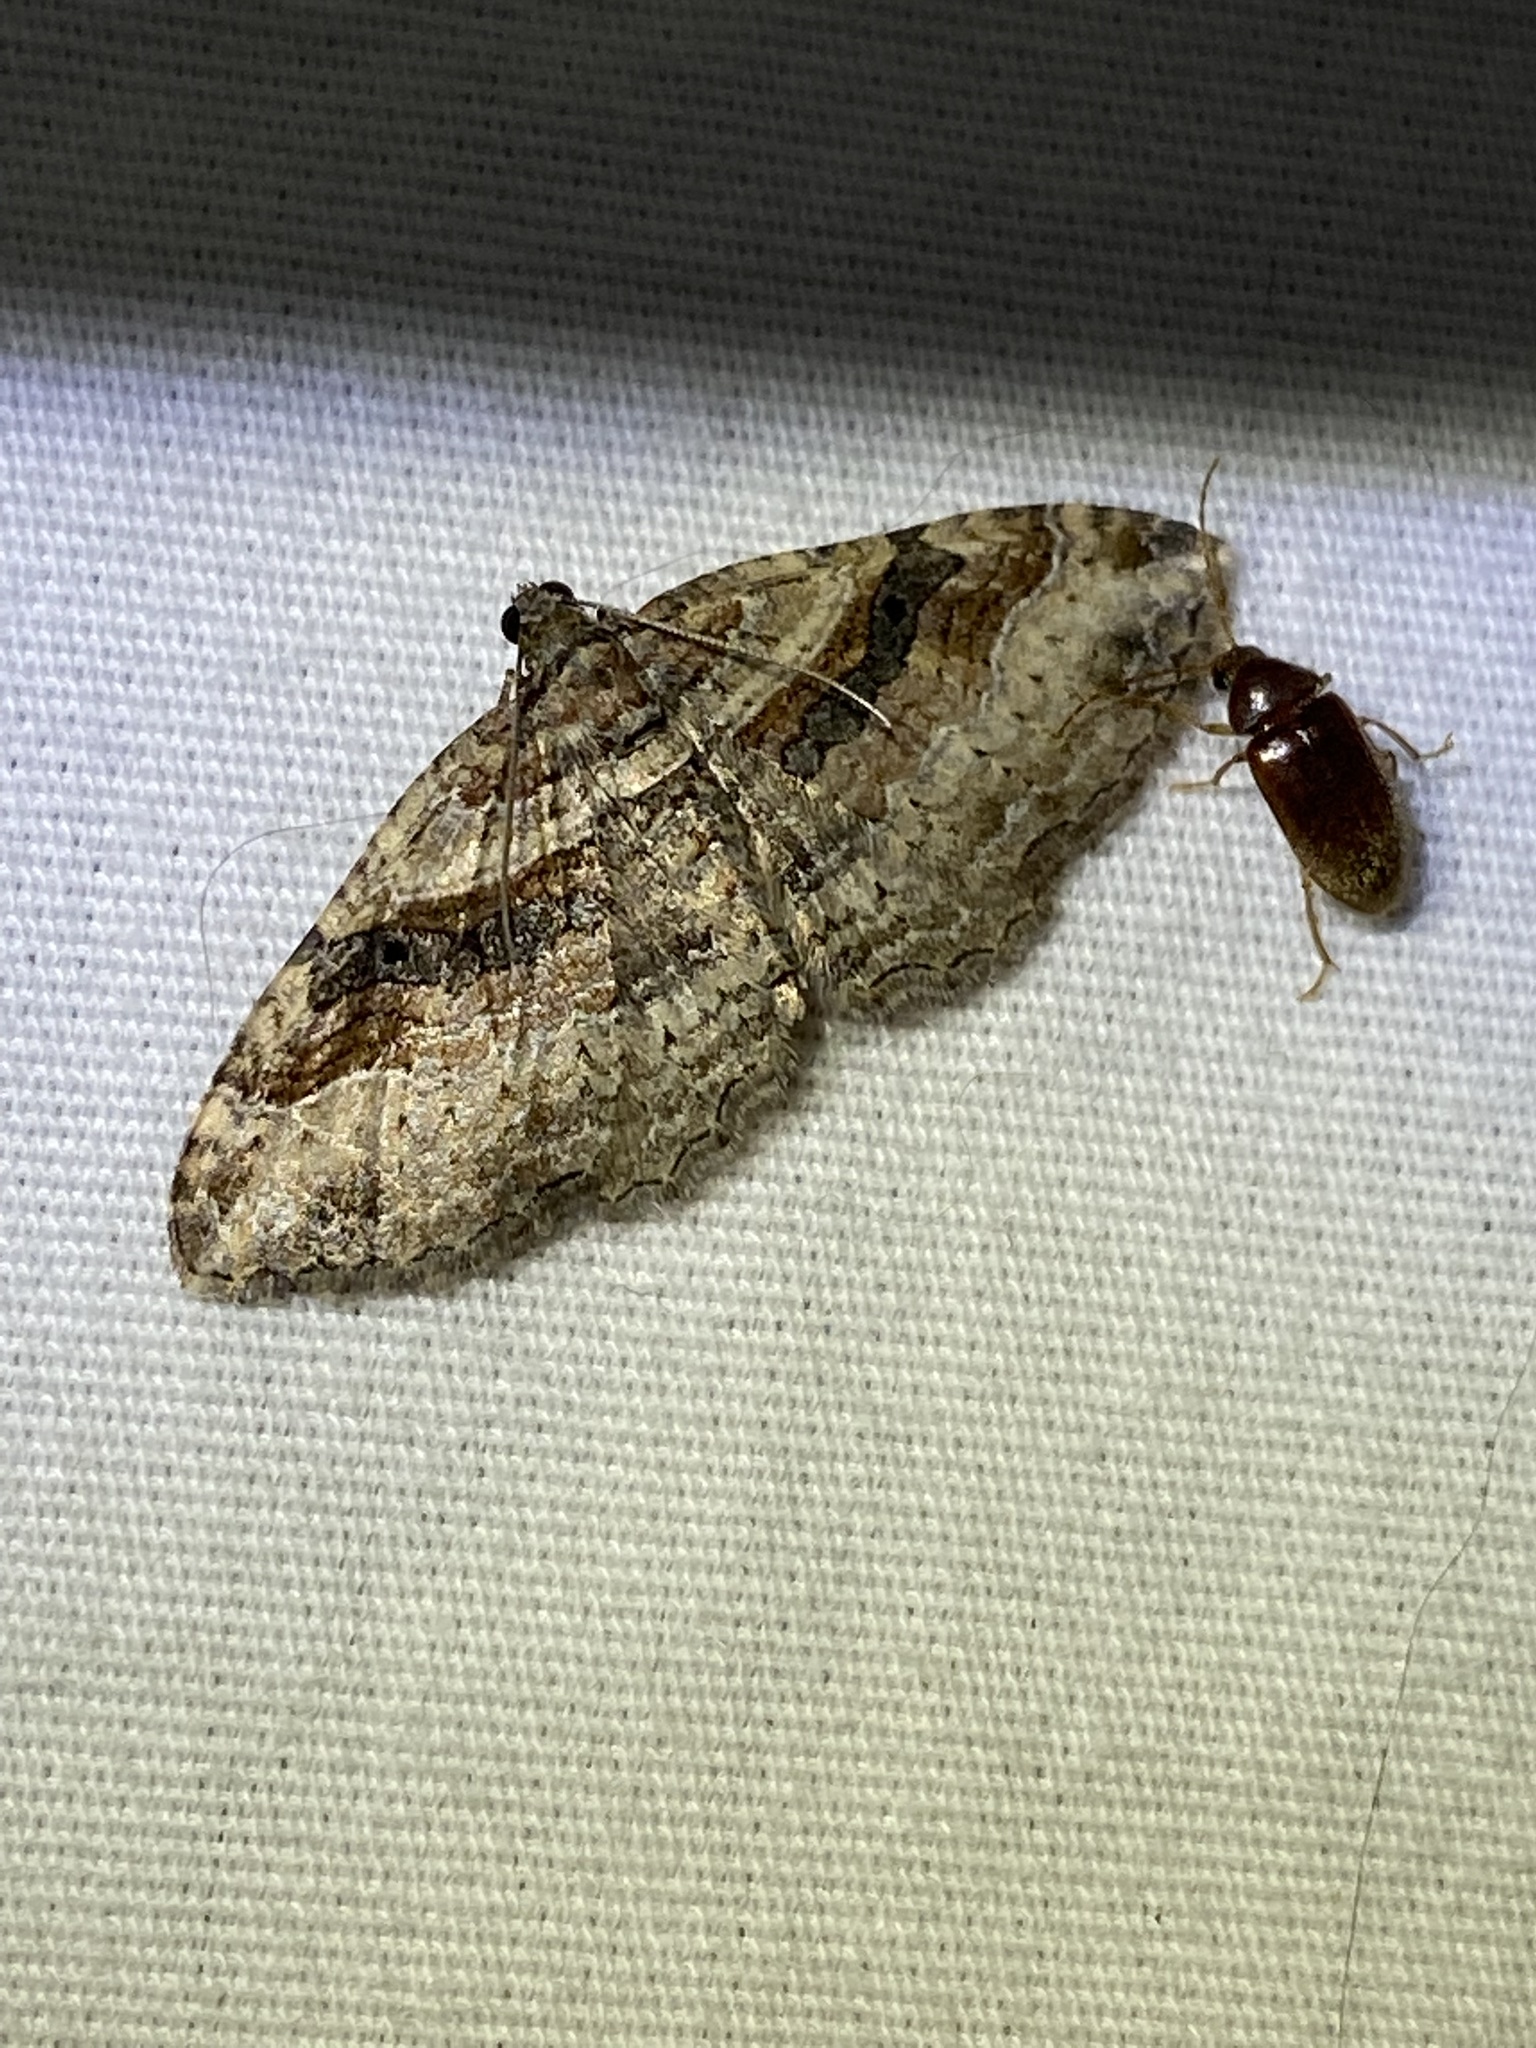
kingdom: Animalia
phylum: Arthropoda
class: Insecta
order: Lepidoptera
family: Geometridae
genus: Costaconvexa
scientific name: Costaconvexa centrostrigaria
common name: Bent-line carpet
